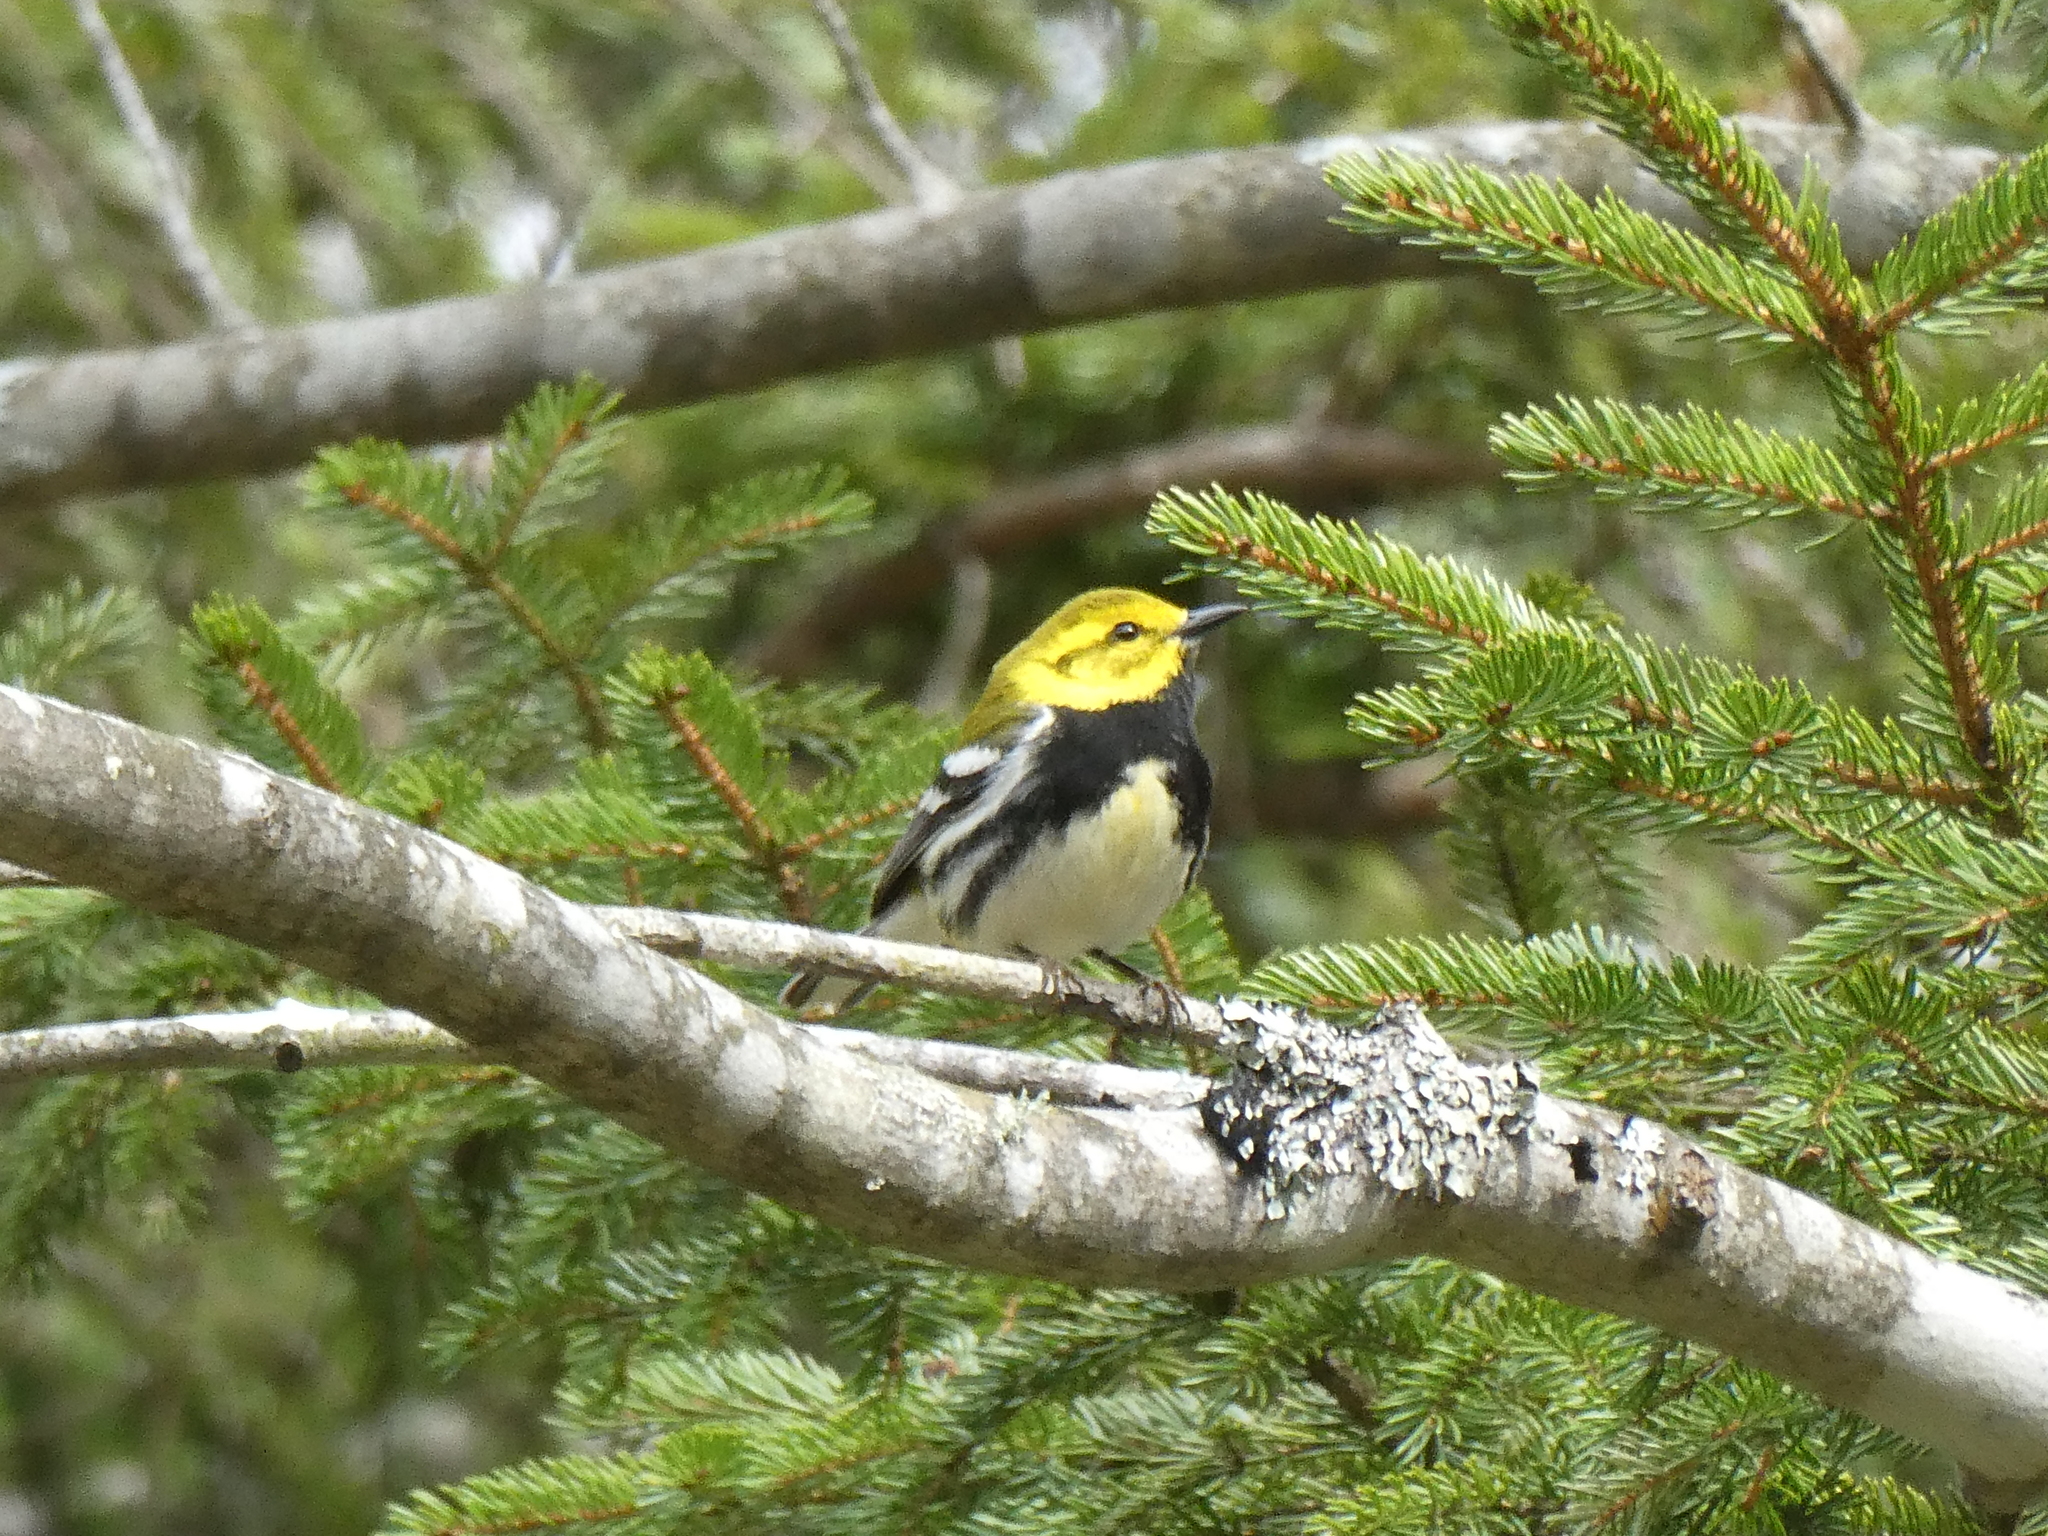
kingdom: Animalia
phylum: Chordata
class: Aves
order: Passeriformes
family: Parulidae
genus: Setophaga
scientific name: Setophaga virens
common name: Black-throated green warbler
